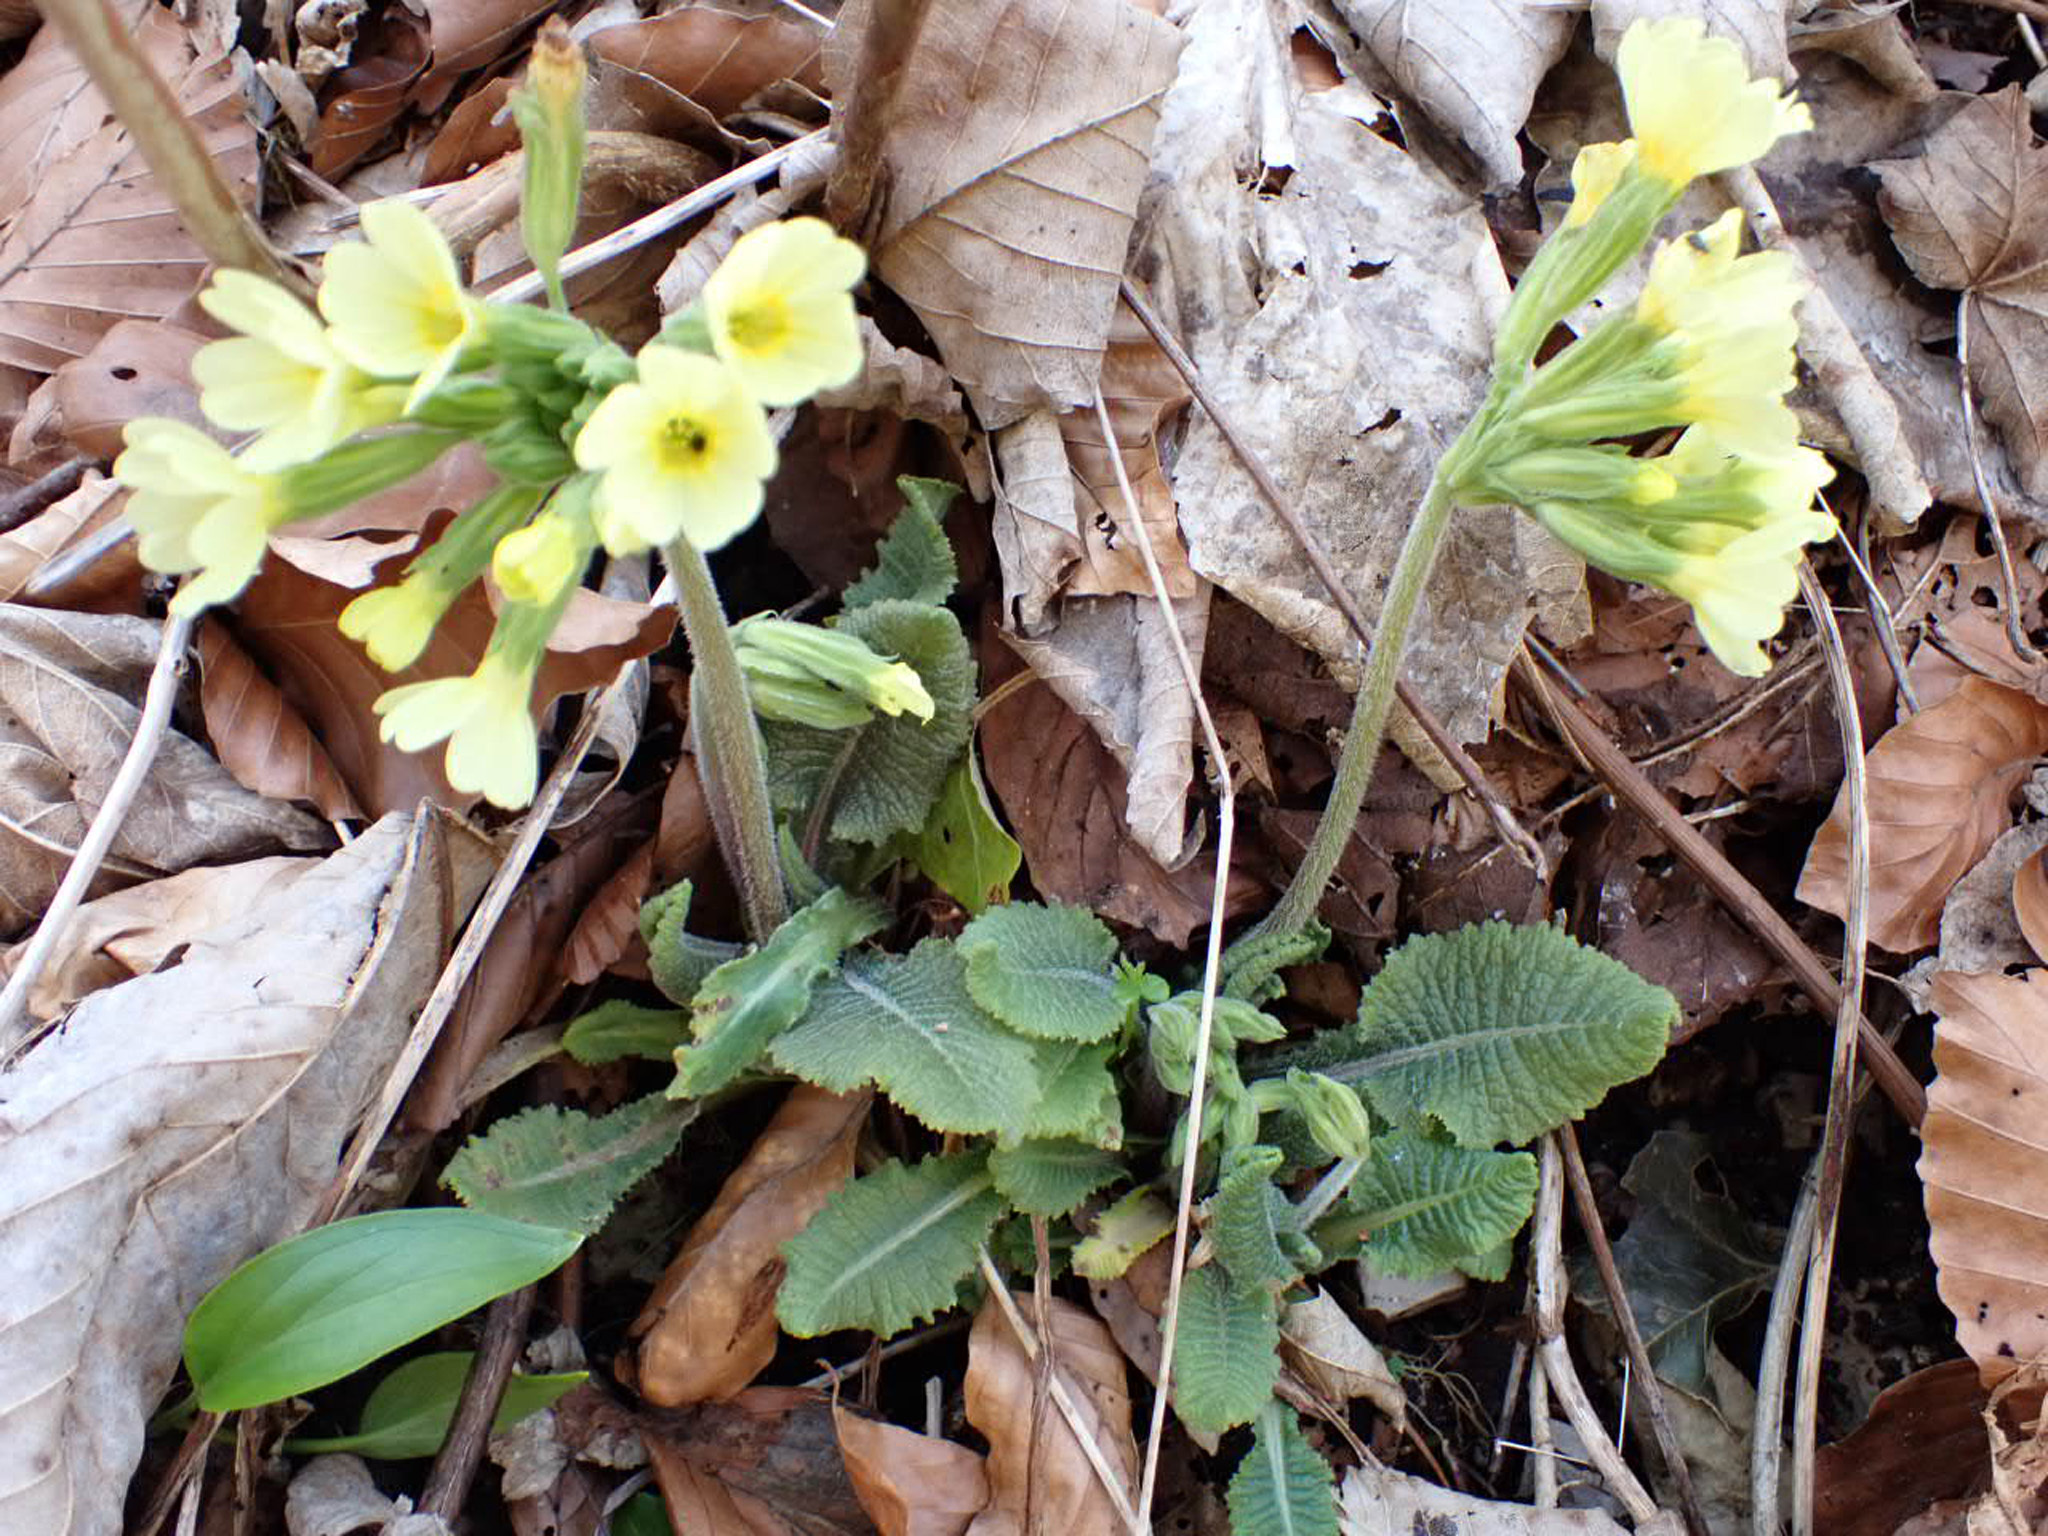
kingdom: Plantae
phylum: Tracheophyta
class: Magnoliopsida
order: Ericales
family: Primulaceae
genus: Primula
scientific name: Primula elatior
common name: Oxlip
